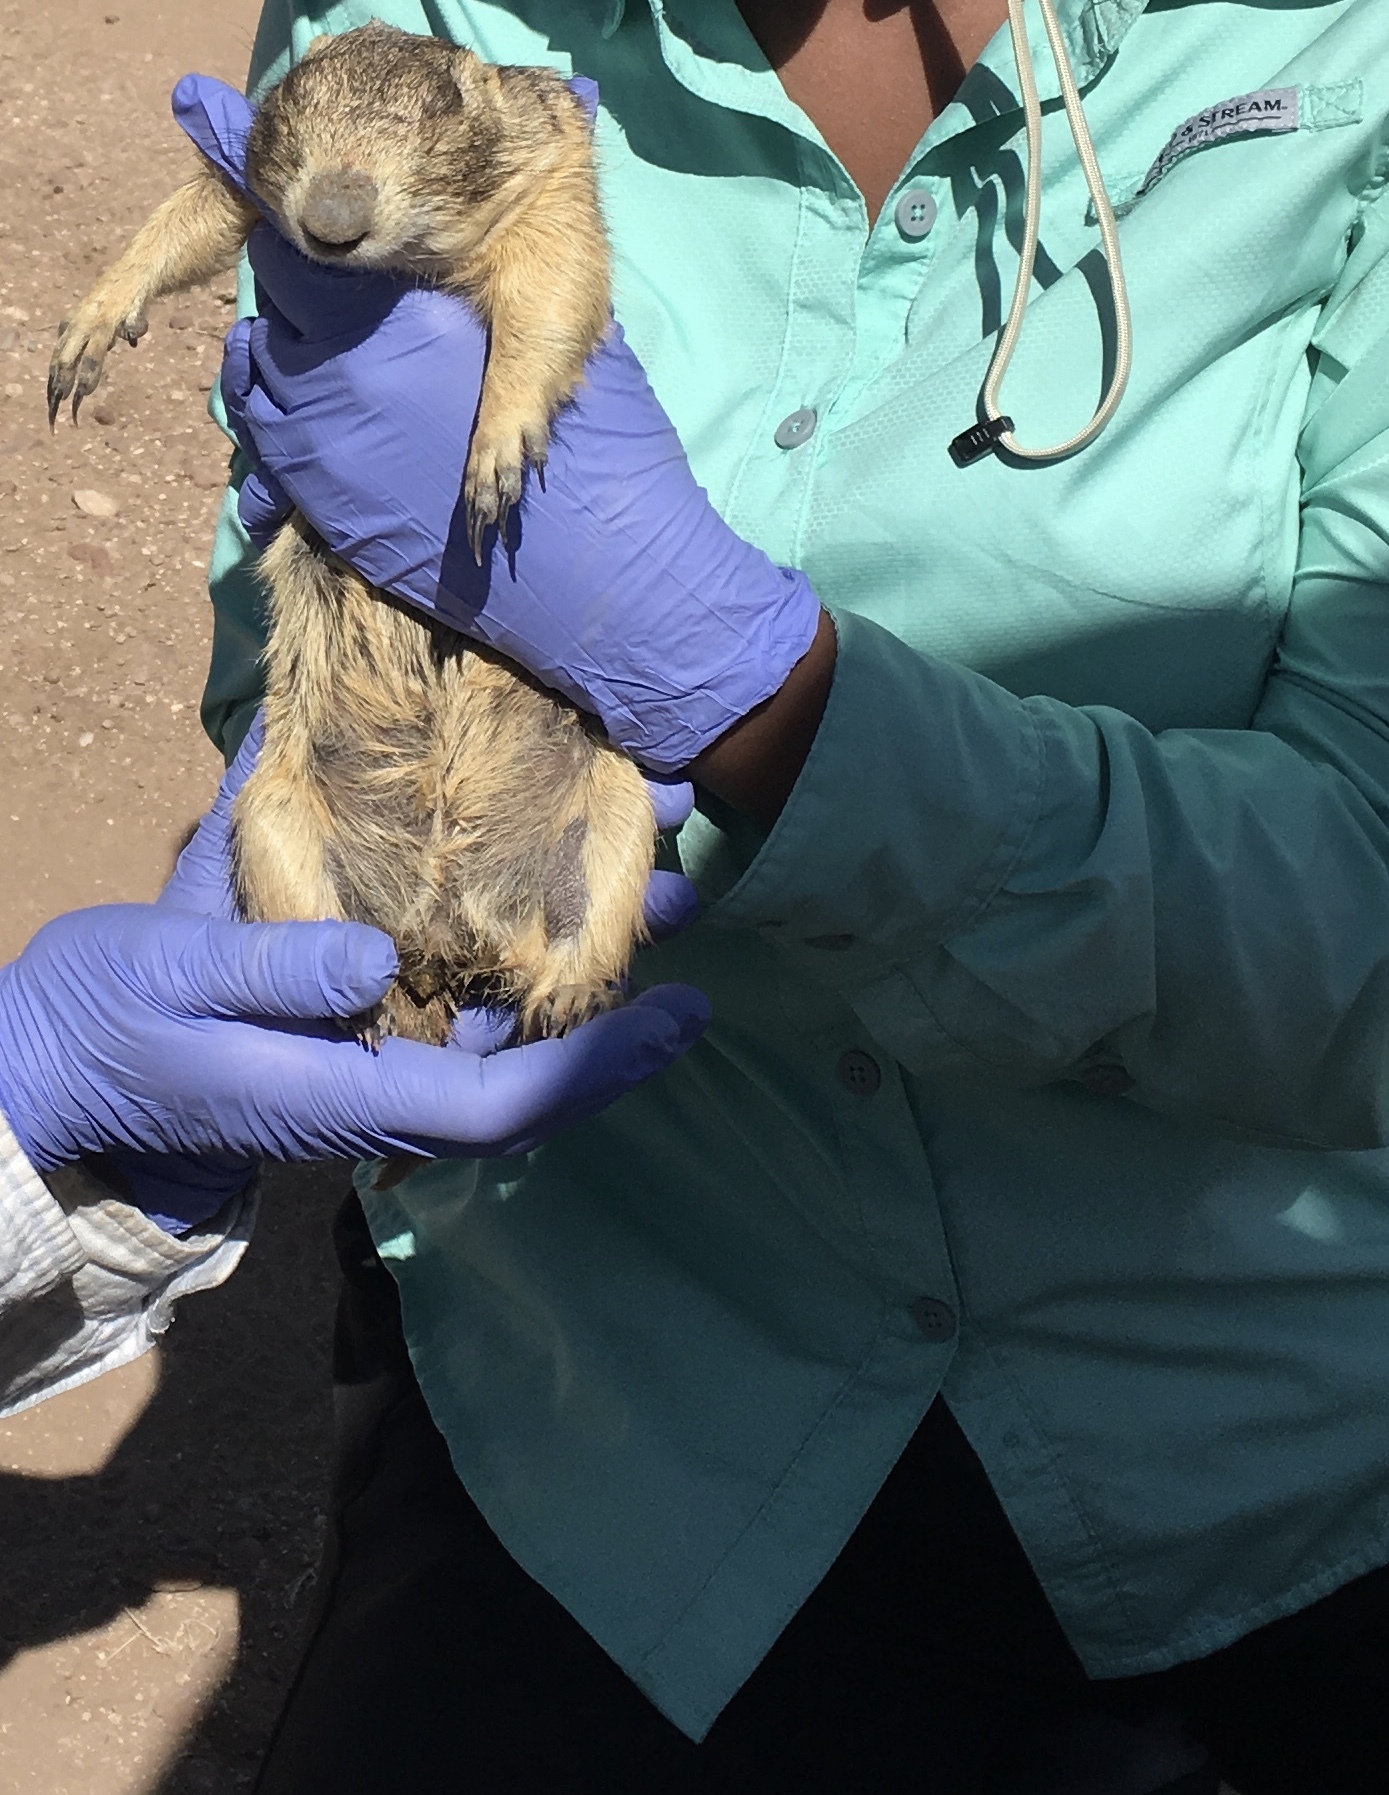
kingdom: Animalia
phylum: Chordata
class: Mammalia
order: Rodentia
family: Sciuridae
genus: Cynomys
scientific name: Cynomys gunnisoni
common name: Gunnison's prairie dog
